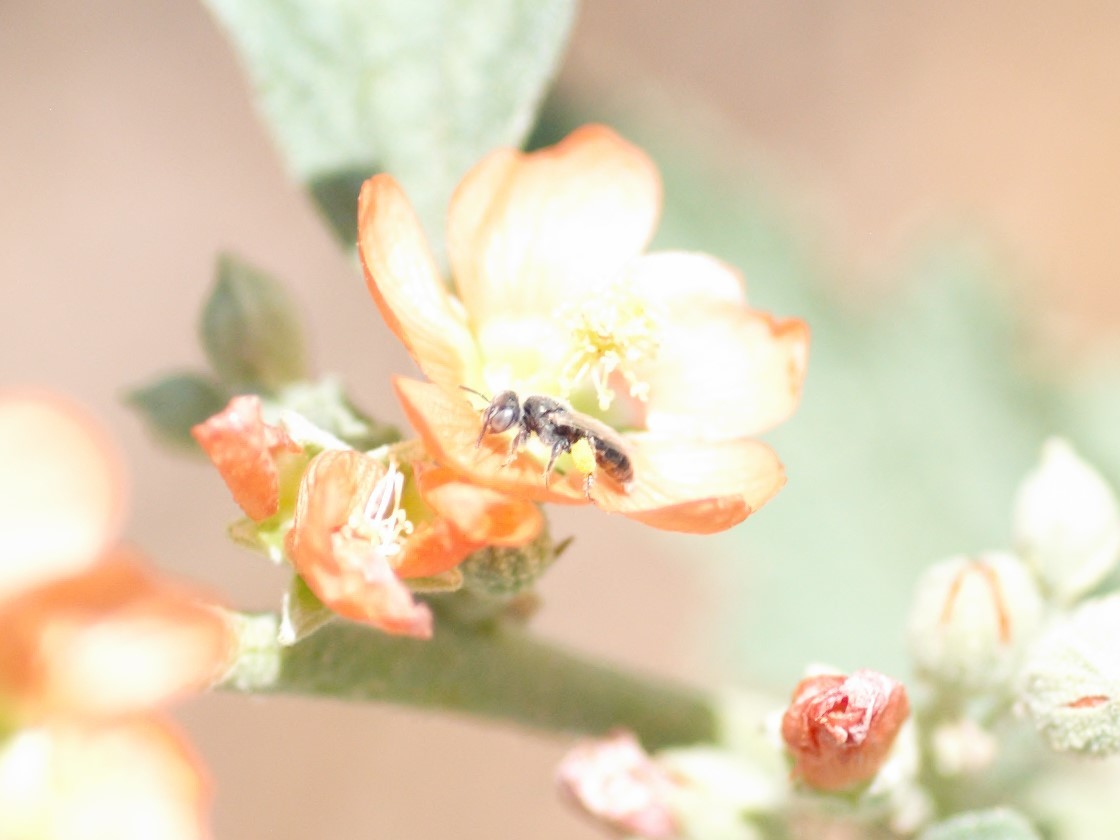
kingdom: Animalia
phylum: Arthropoda
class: Insecta
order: Hymenoptera
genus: Macroteropsis
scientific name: Macroteropsis
